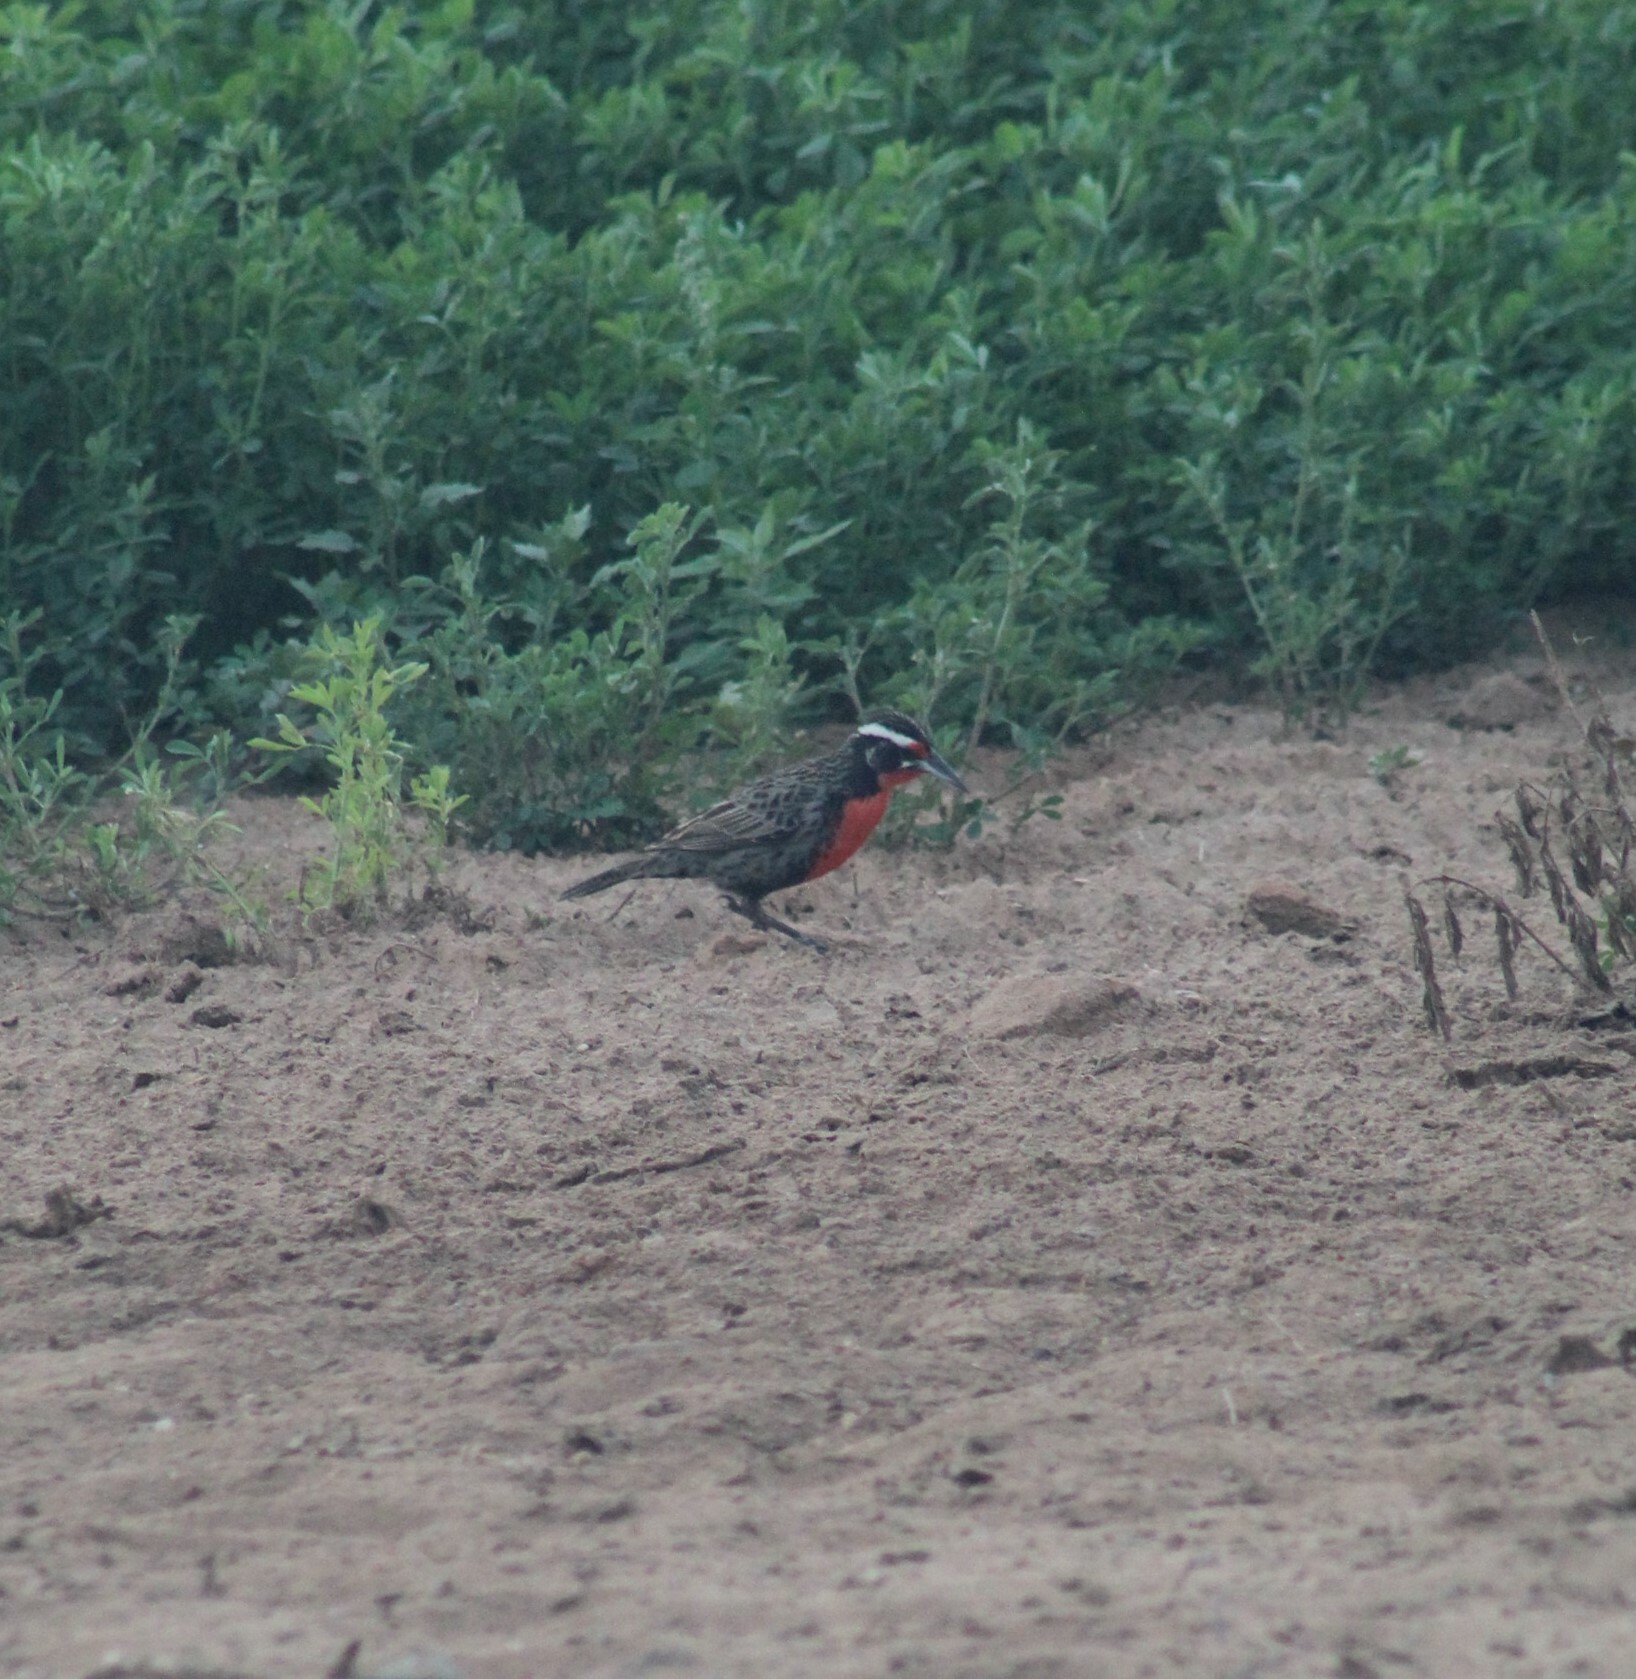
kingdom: Animalia
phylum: Chordata
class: Aves
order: Passeriformes
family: Icteridae
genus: Sturnella
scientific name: Sturnella loyca
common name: Long-tailed meadowlark
